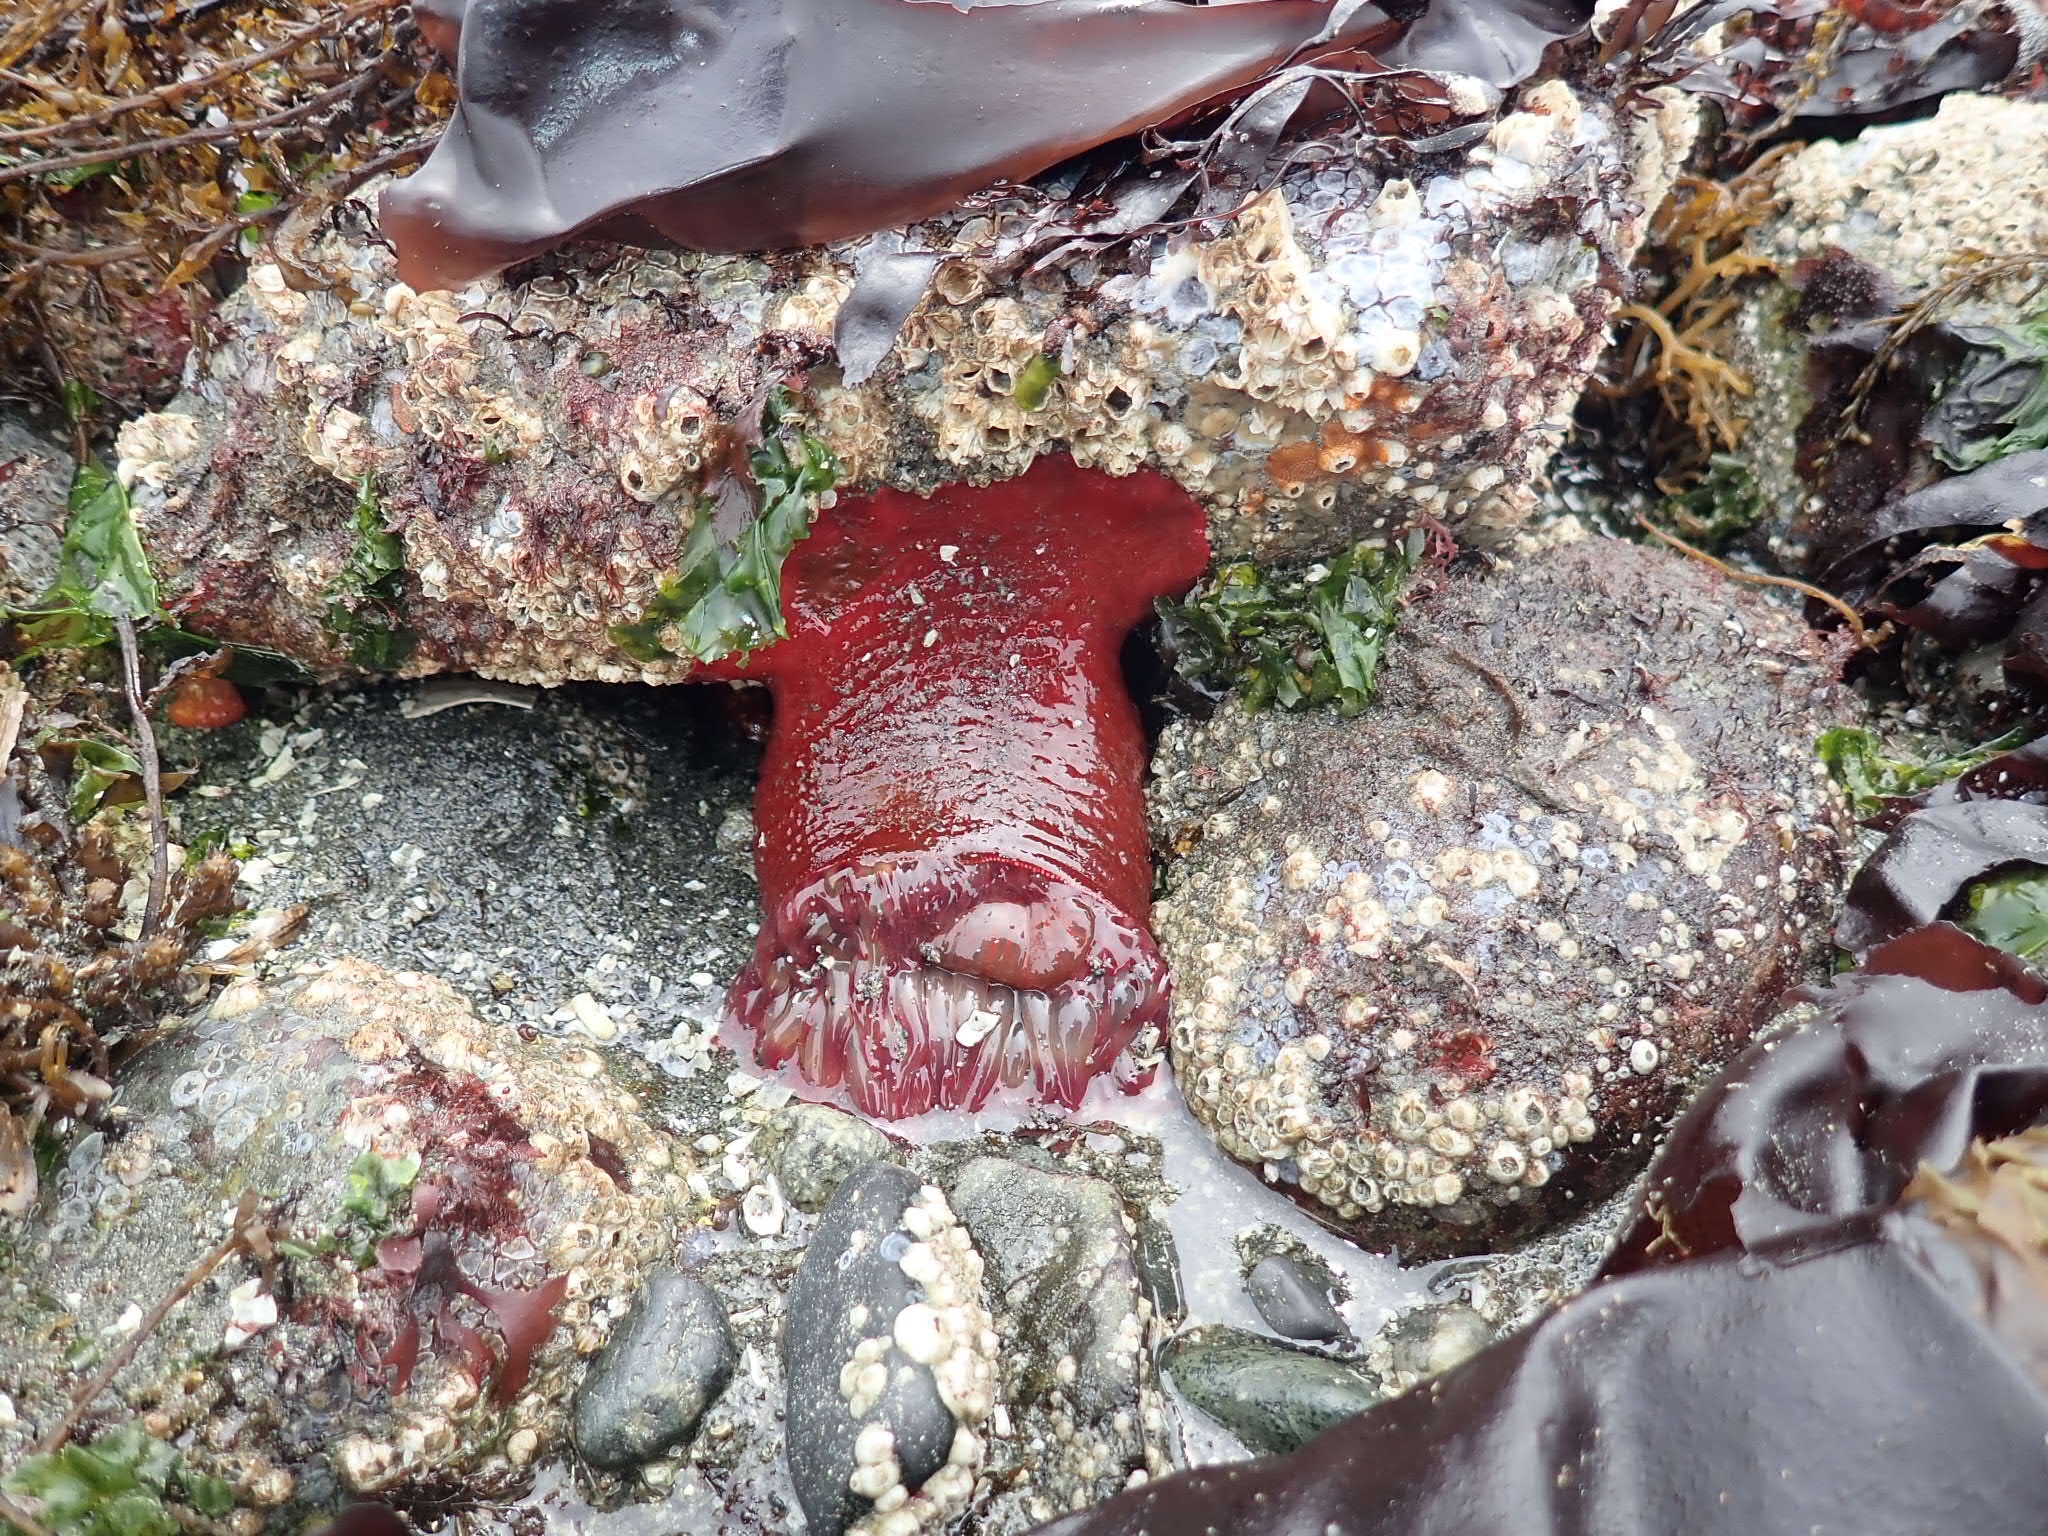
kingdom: Animalia
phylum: Cnidaria
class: Anthozoa
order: Actiniaria
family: Actiniidae
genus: Urticina
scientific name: Urticina grebelnyi
